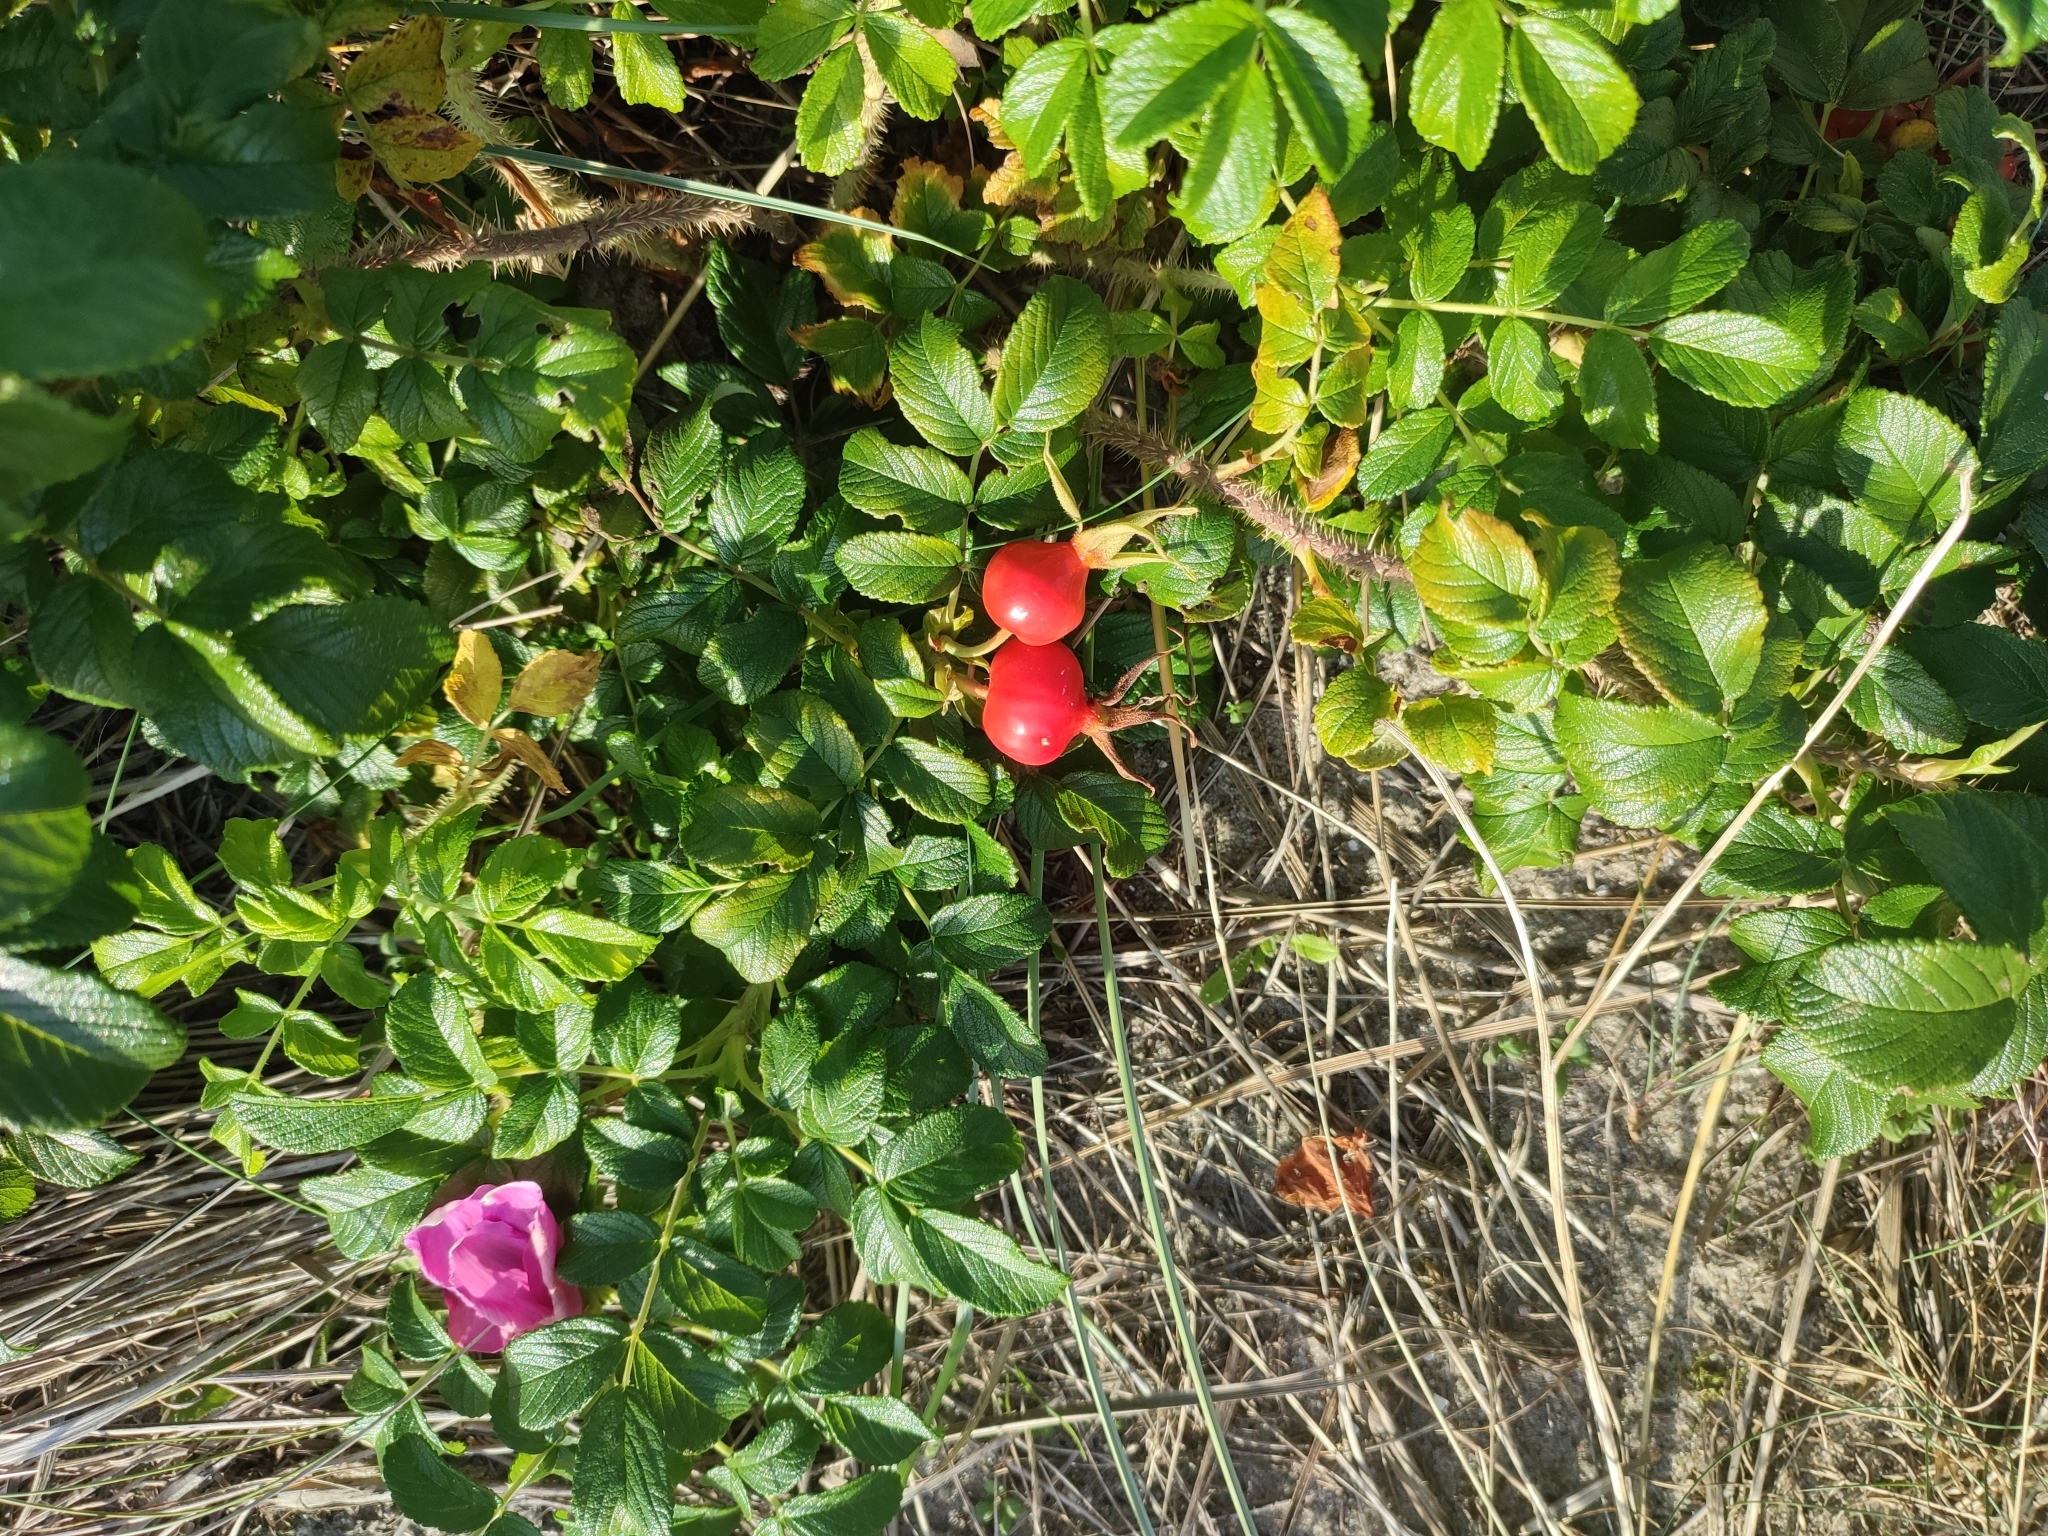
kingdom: Plantae
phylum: Tracheophyta
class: Magnoliopsida
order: Rosales
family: Rosaceae
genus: Rosa
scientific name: Rosa rugosa
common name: Japanese rose
